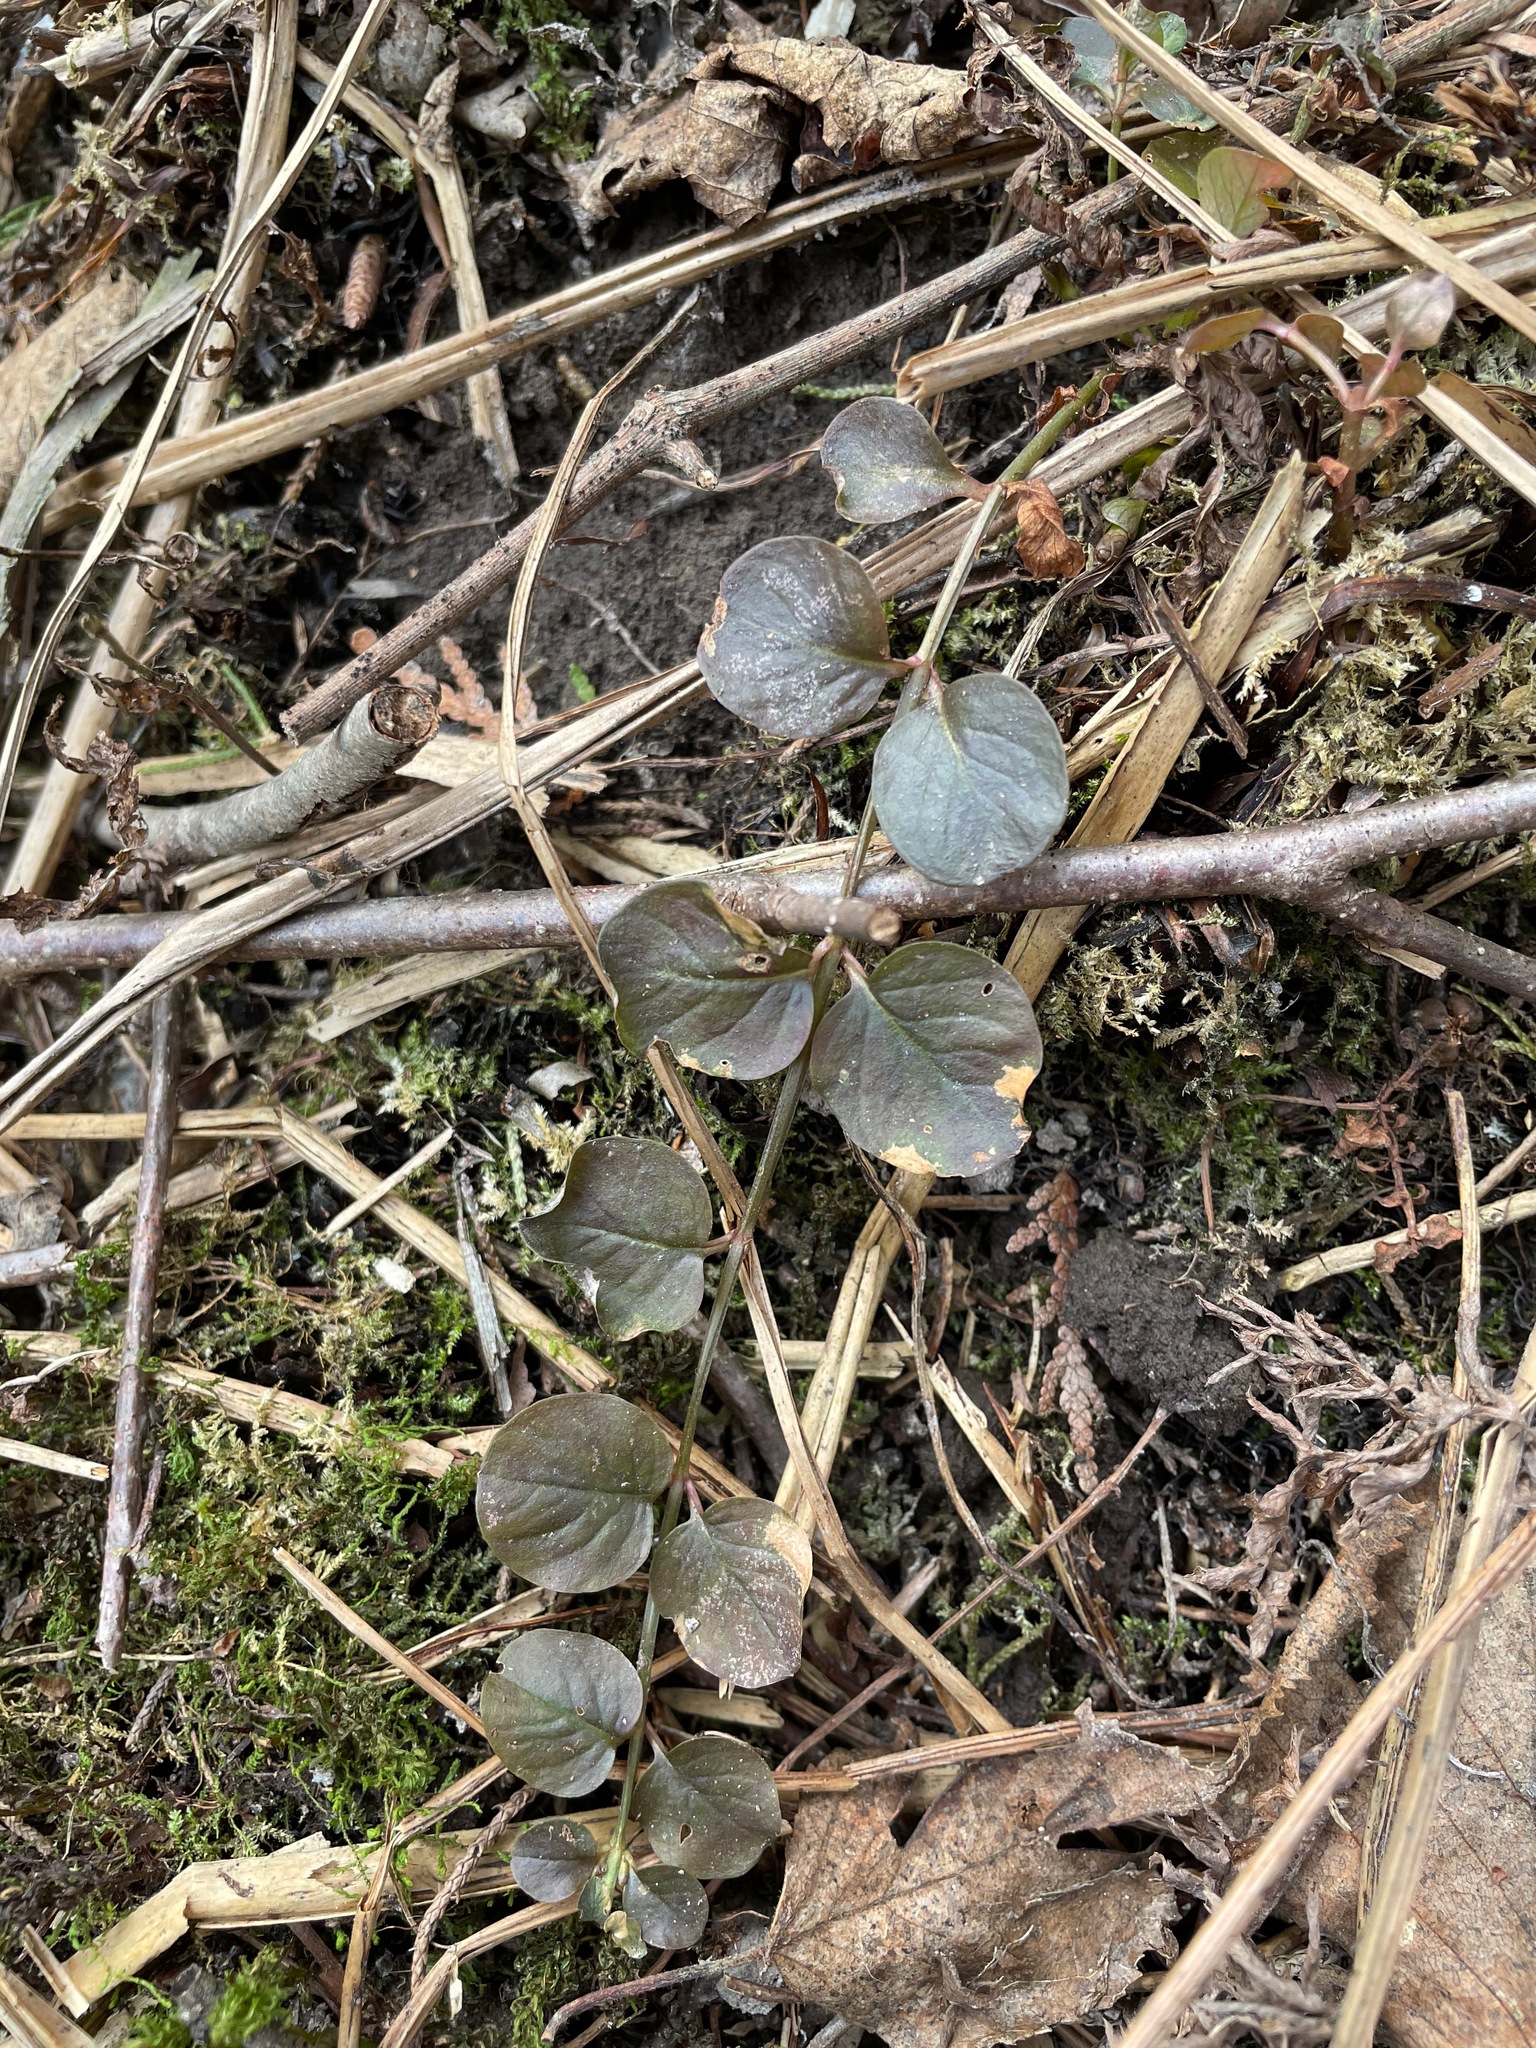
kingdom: Plantae
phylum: Tracheophyta
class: Magnoliopsida
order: Ericales
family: Primulaceae
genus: Lysimachia
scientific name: Lysimachia nummularia
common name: Moneywort
